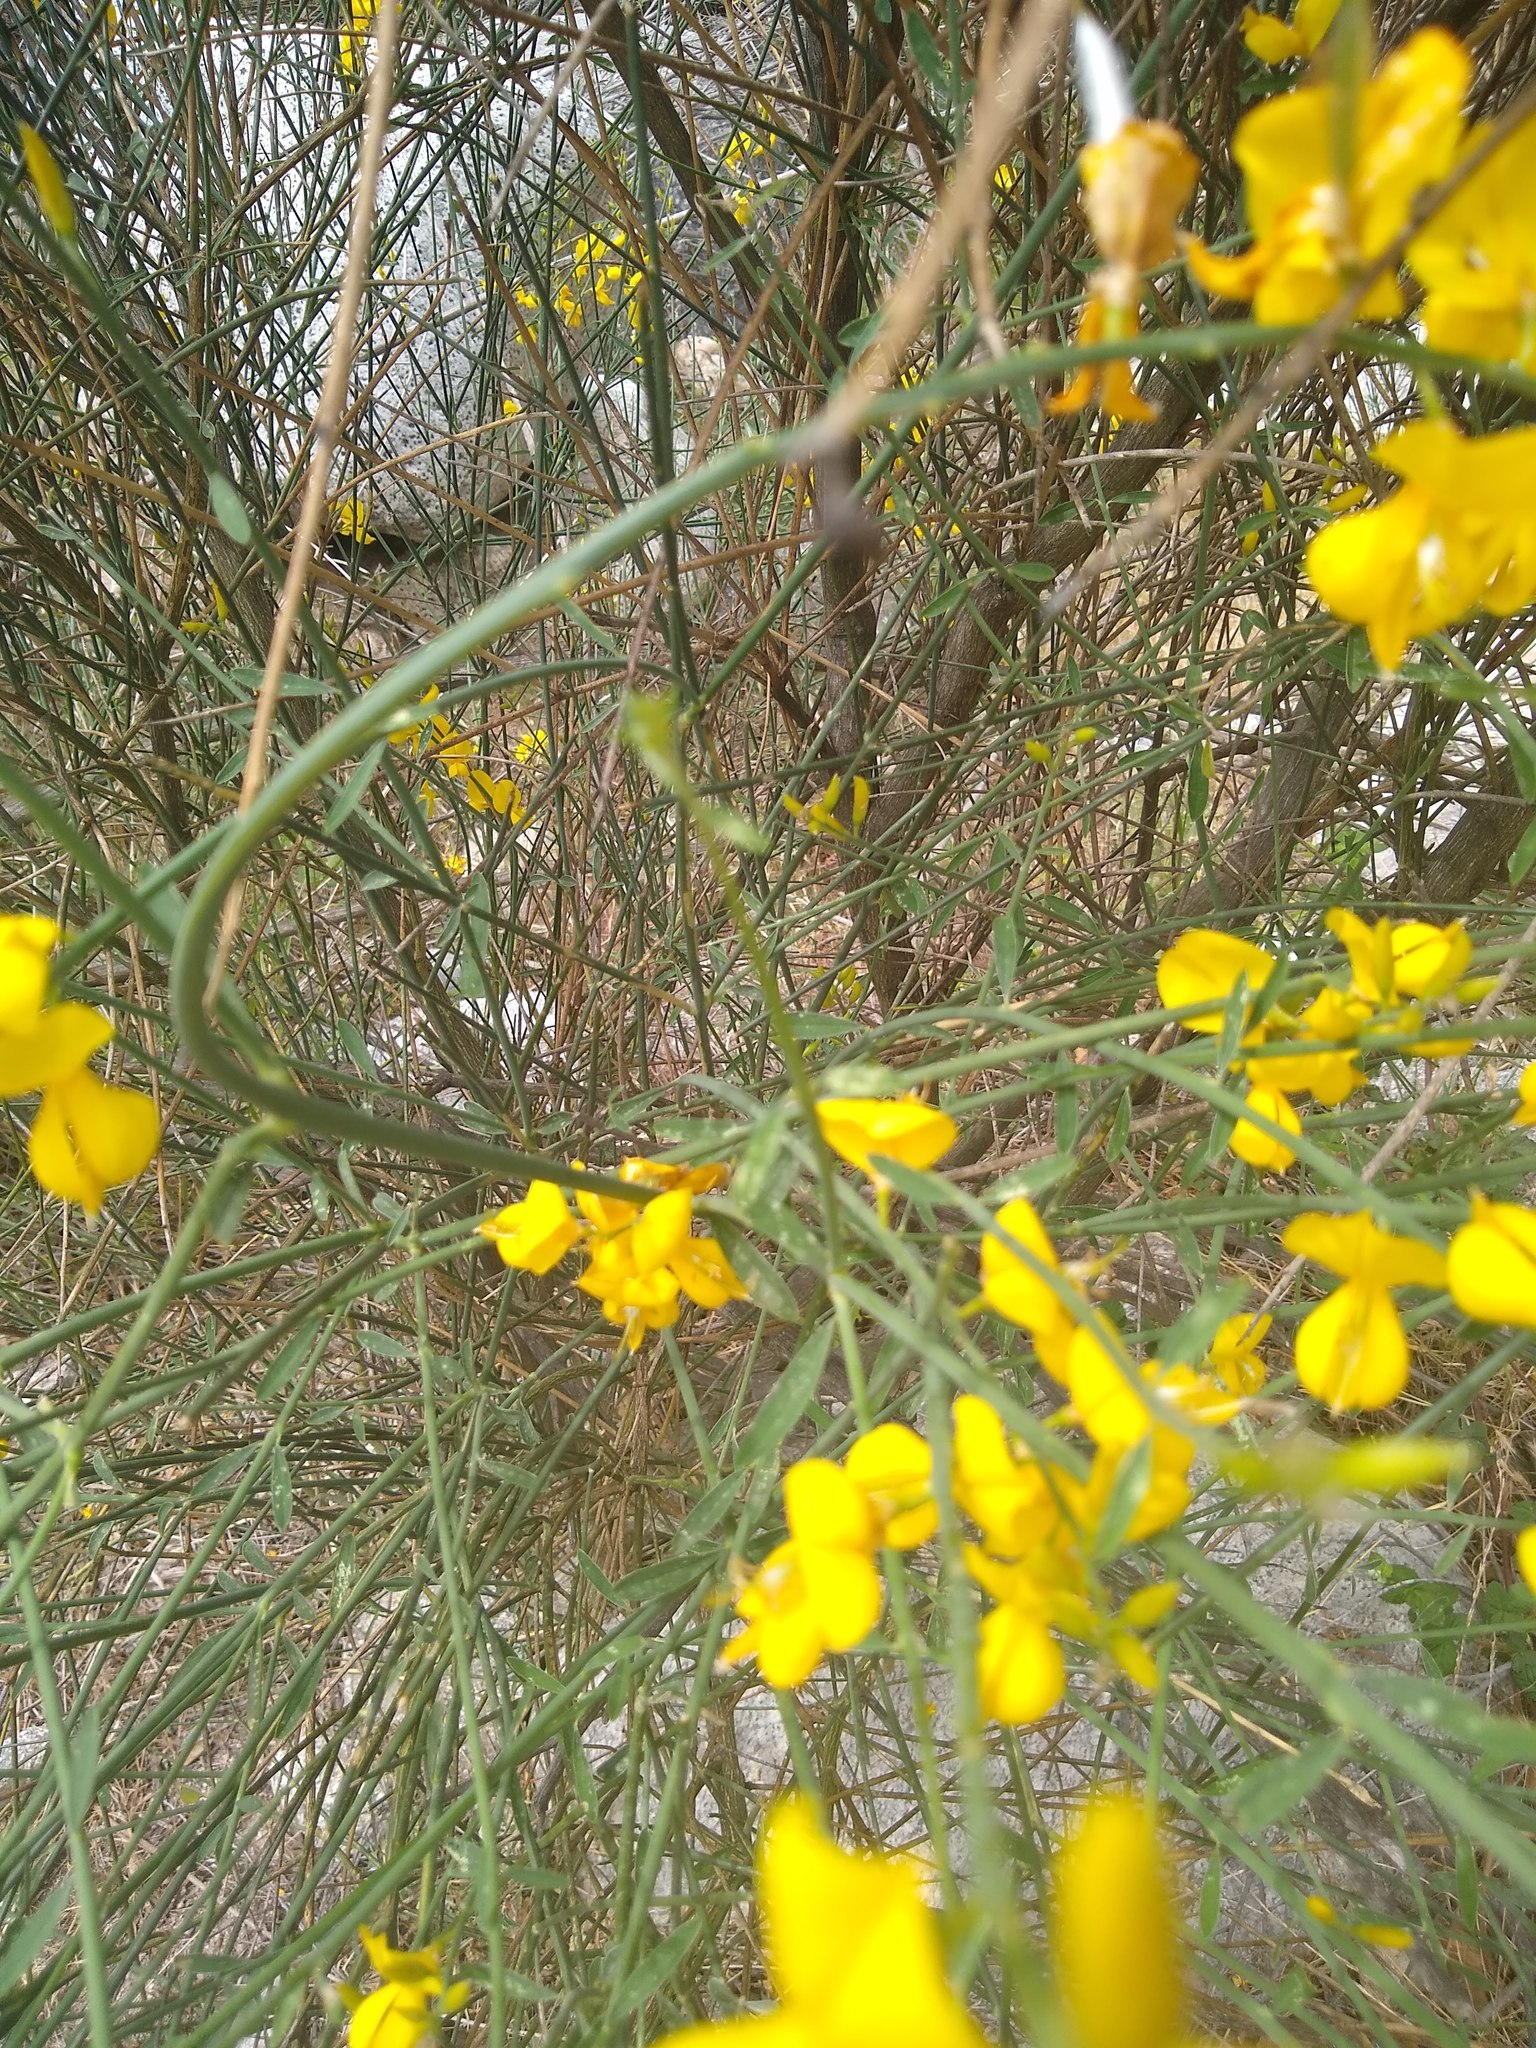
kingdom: Plantae
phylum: Tracheophyta
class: Magnoliopsida
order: Fabales
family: Fabaceae
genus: Spartium
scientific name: Spartium junceum
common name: Spanish broom
